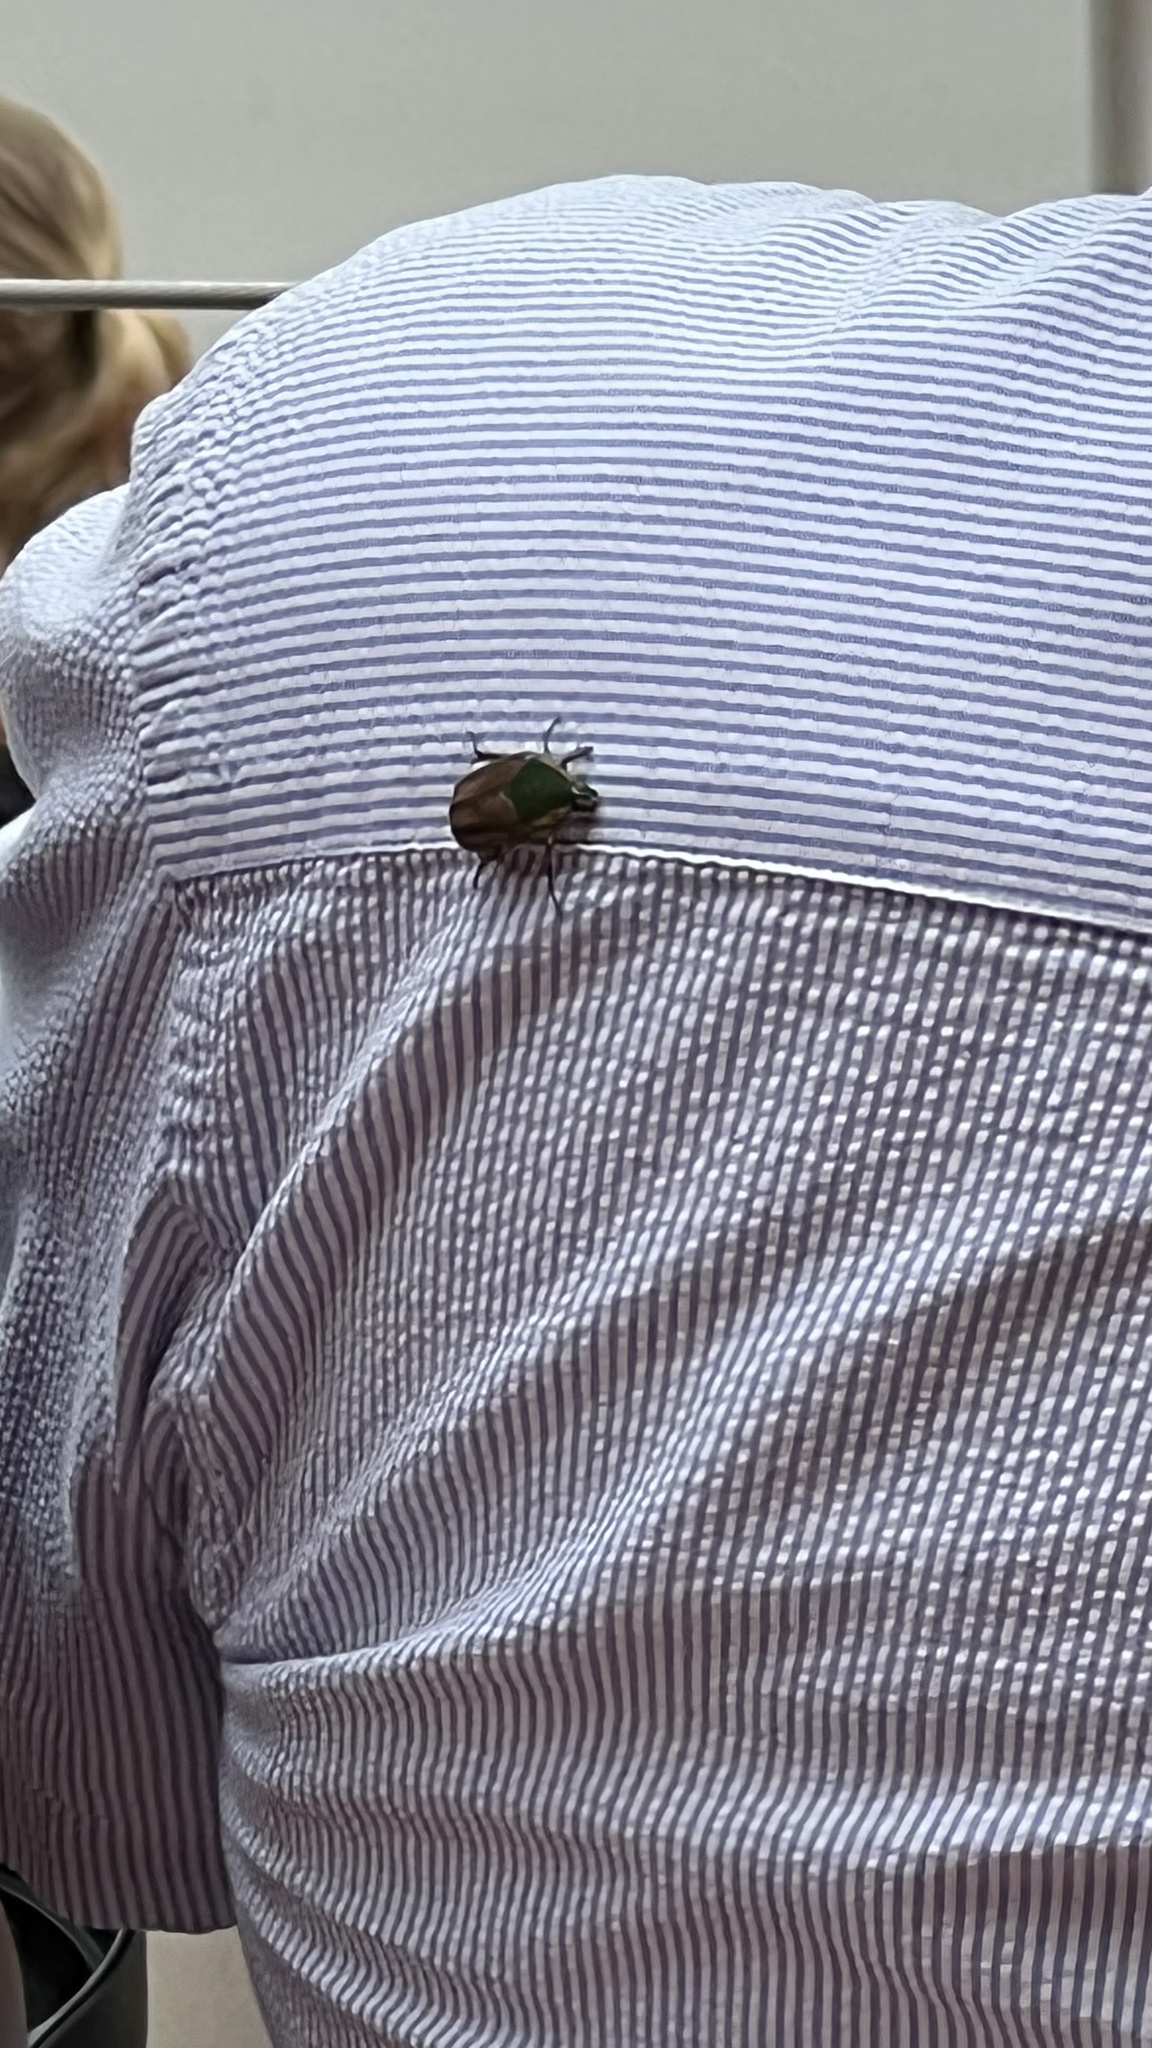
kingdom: Animalia
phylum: Arthropoda
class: Insecta
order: Coleoptera
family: Scarabaeidae
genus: Cotinis
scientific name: Cotinis nitida
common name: Common green june beetle
